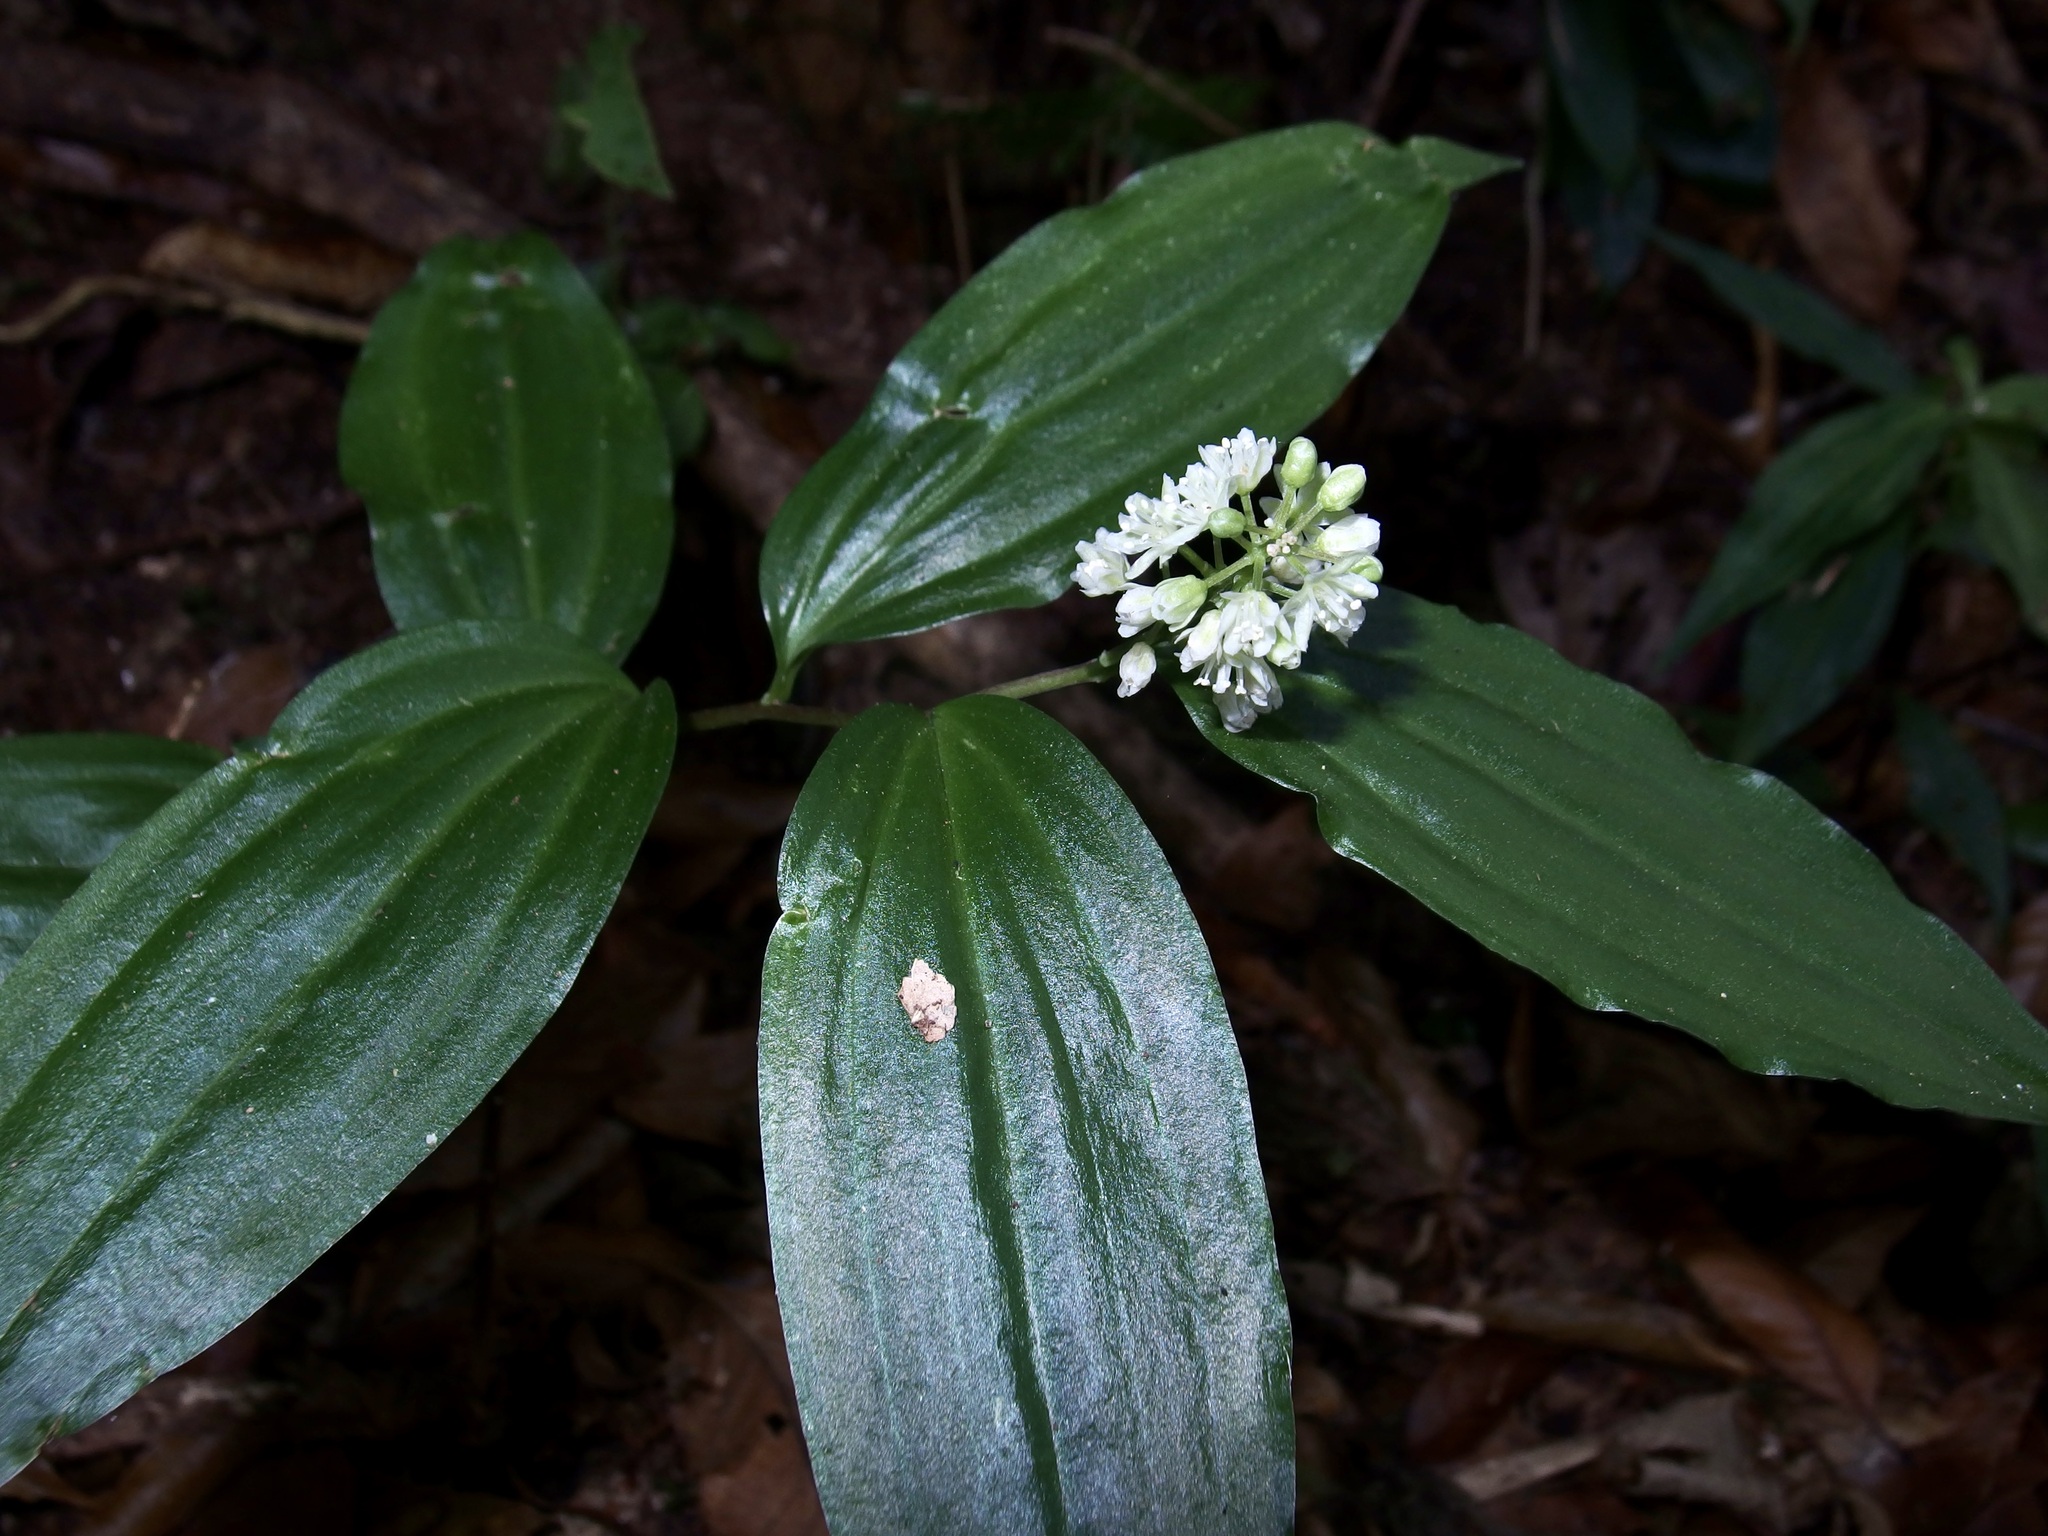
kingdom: Plantae
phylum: Tracheophyta
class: Liliopsida
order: Asparagales
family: Asparagaceae
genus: Maianthemum
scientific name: Maianthemum paniculatum
